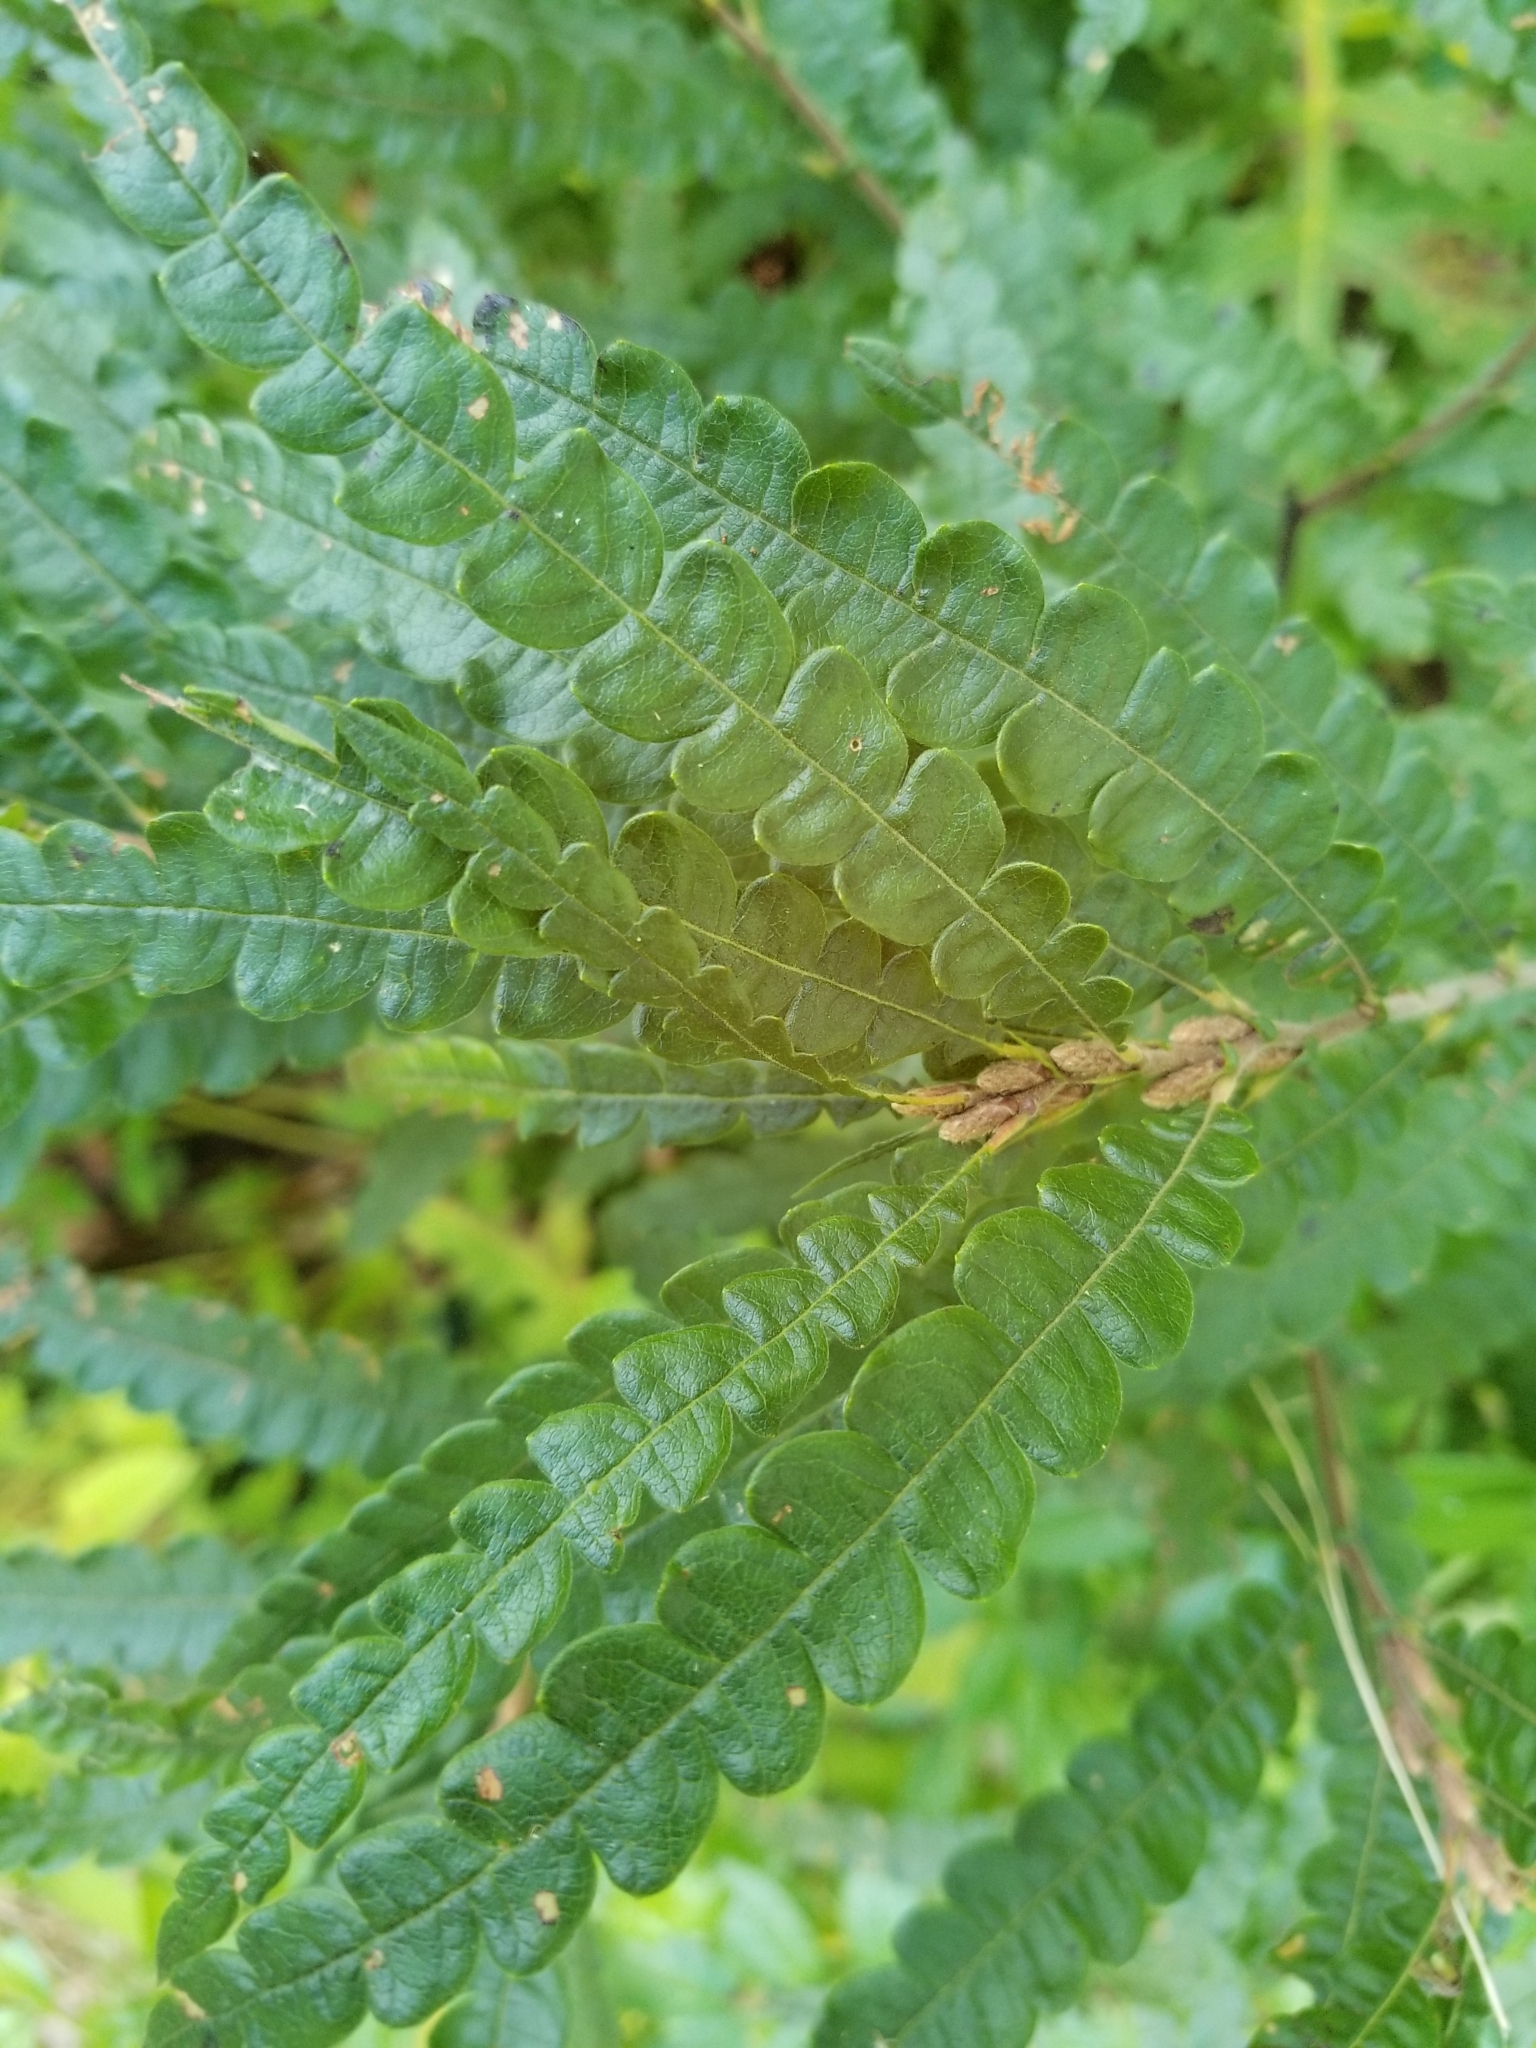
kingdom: Plantae
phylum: Tracheophyta
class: Magnoliopsida
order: Fagales
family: Myricaceae
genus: Comptonia
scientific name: Comptonia peregrina
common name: Sweet-fern
